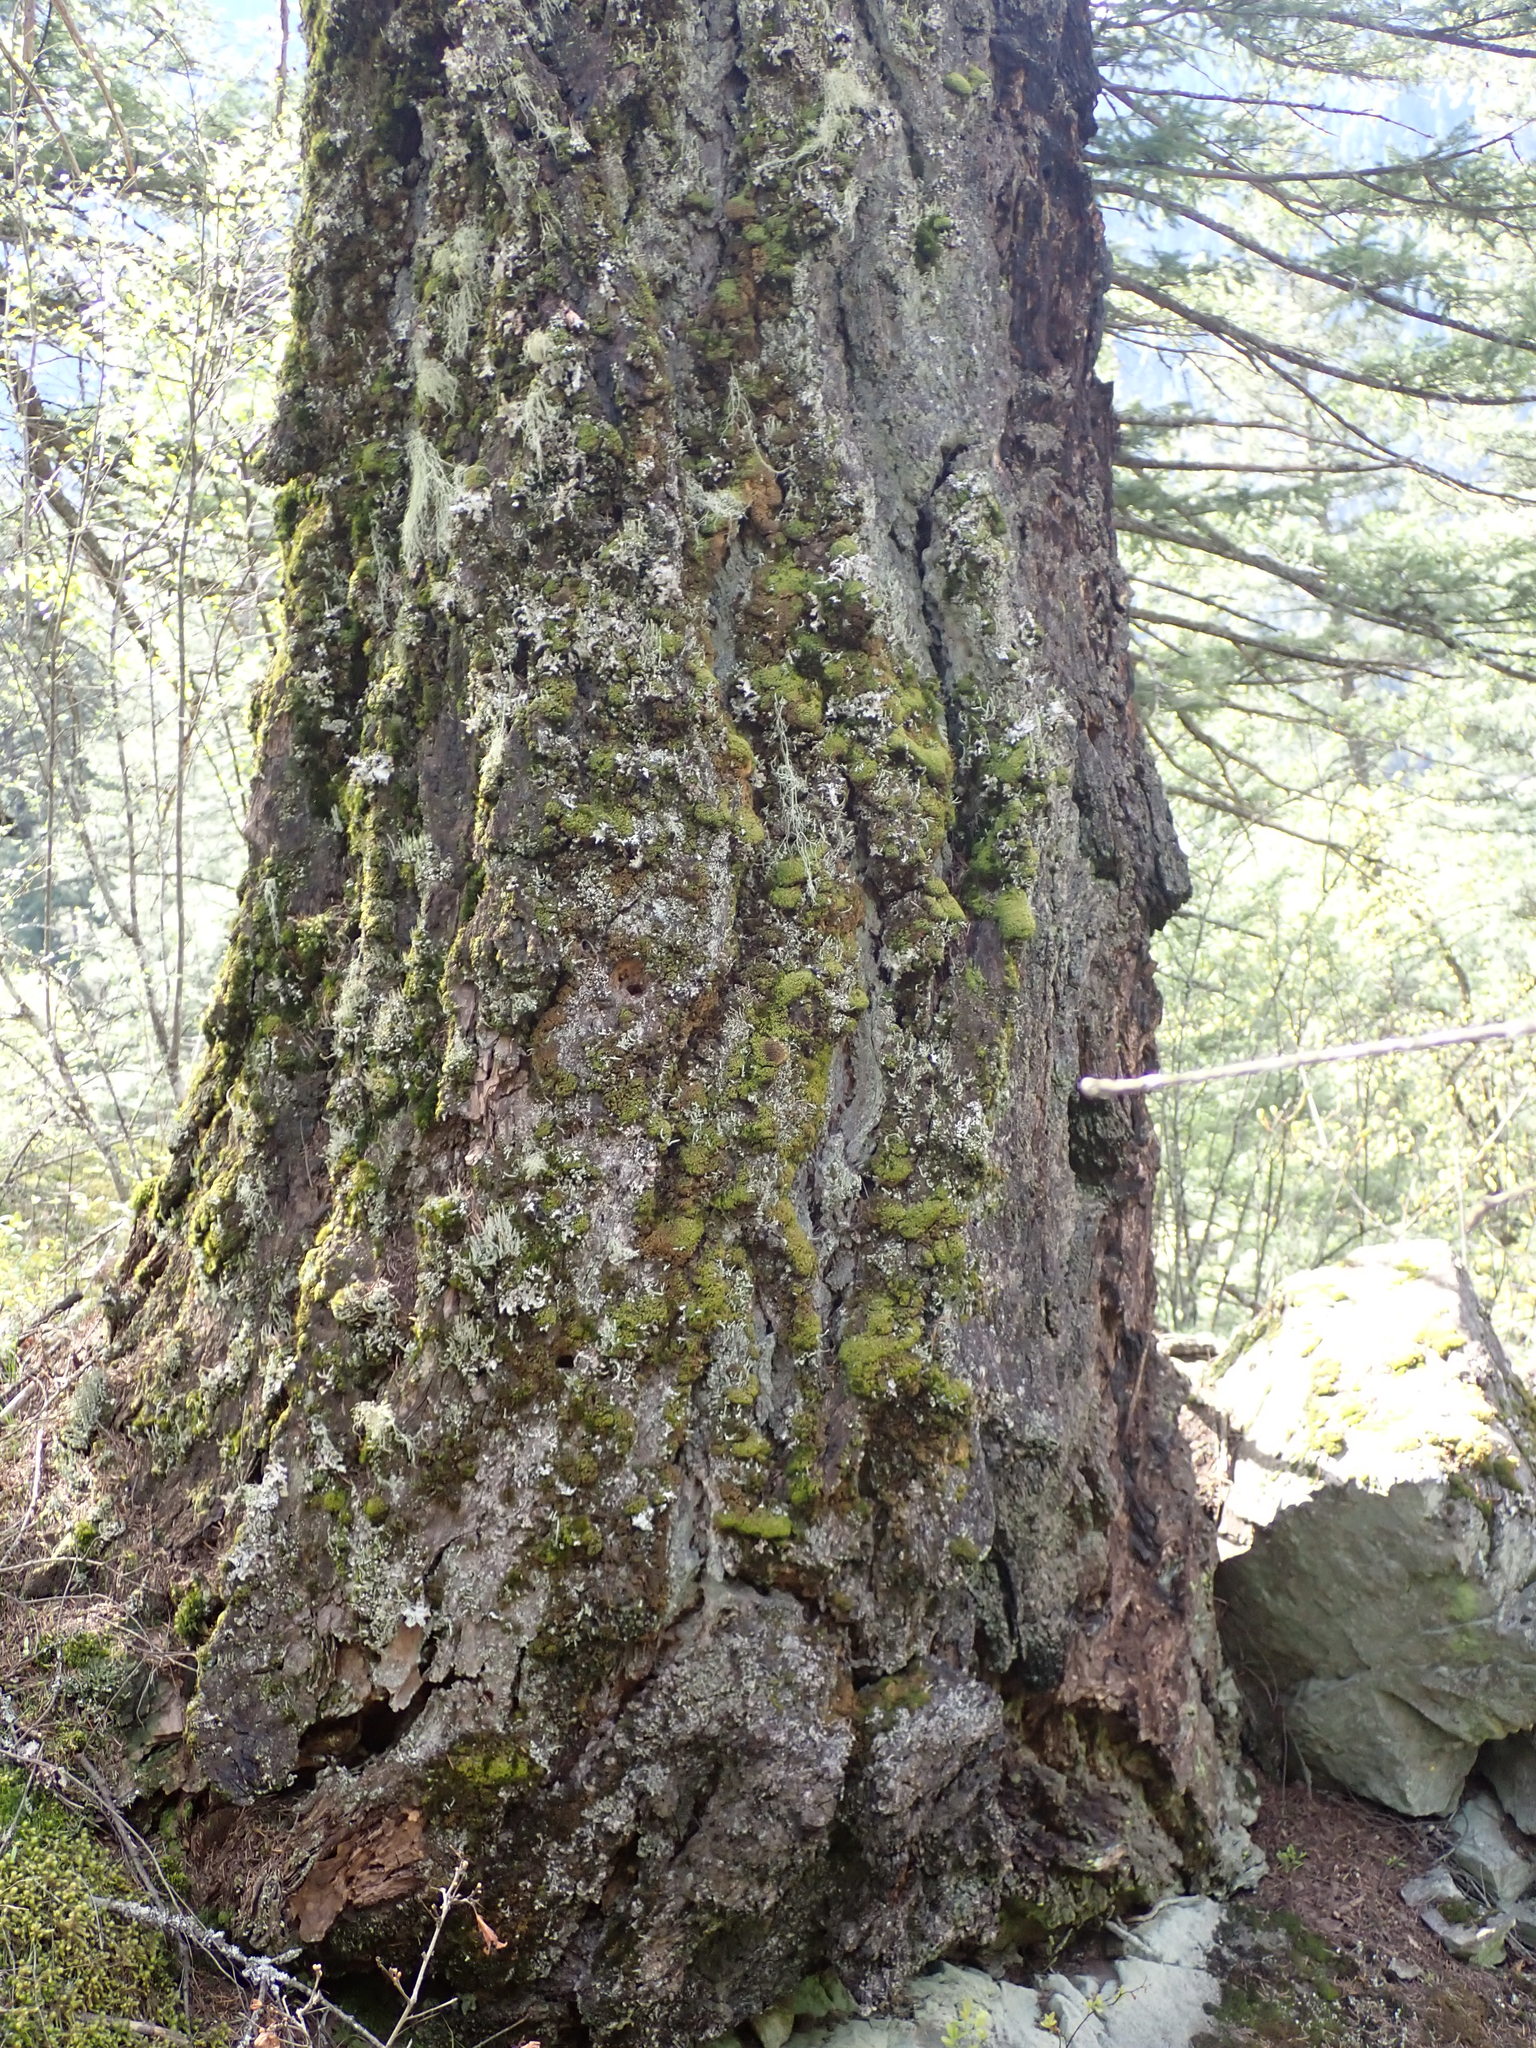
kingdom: Plantae
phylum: Tracheophyta
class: Pinopsida
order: Pinales
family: Pinaceae
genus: Pseudotsuga
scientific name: Pseudotsuga menziesii
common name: Douglas fir
